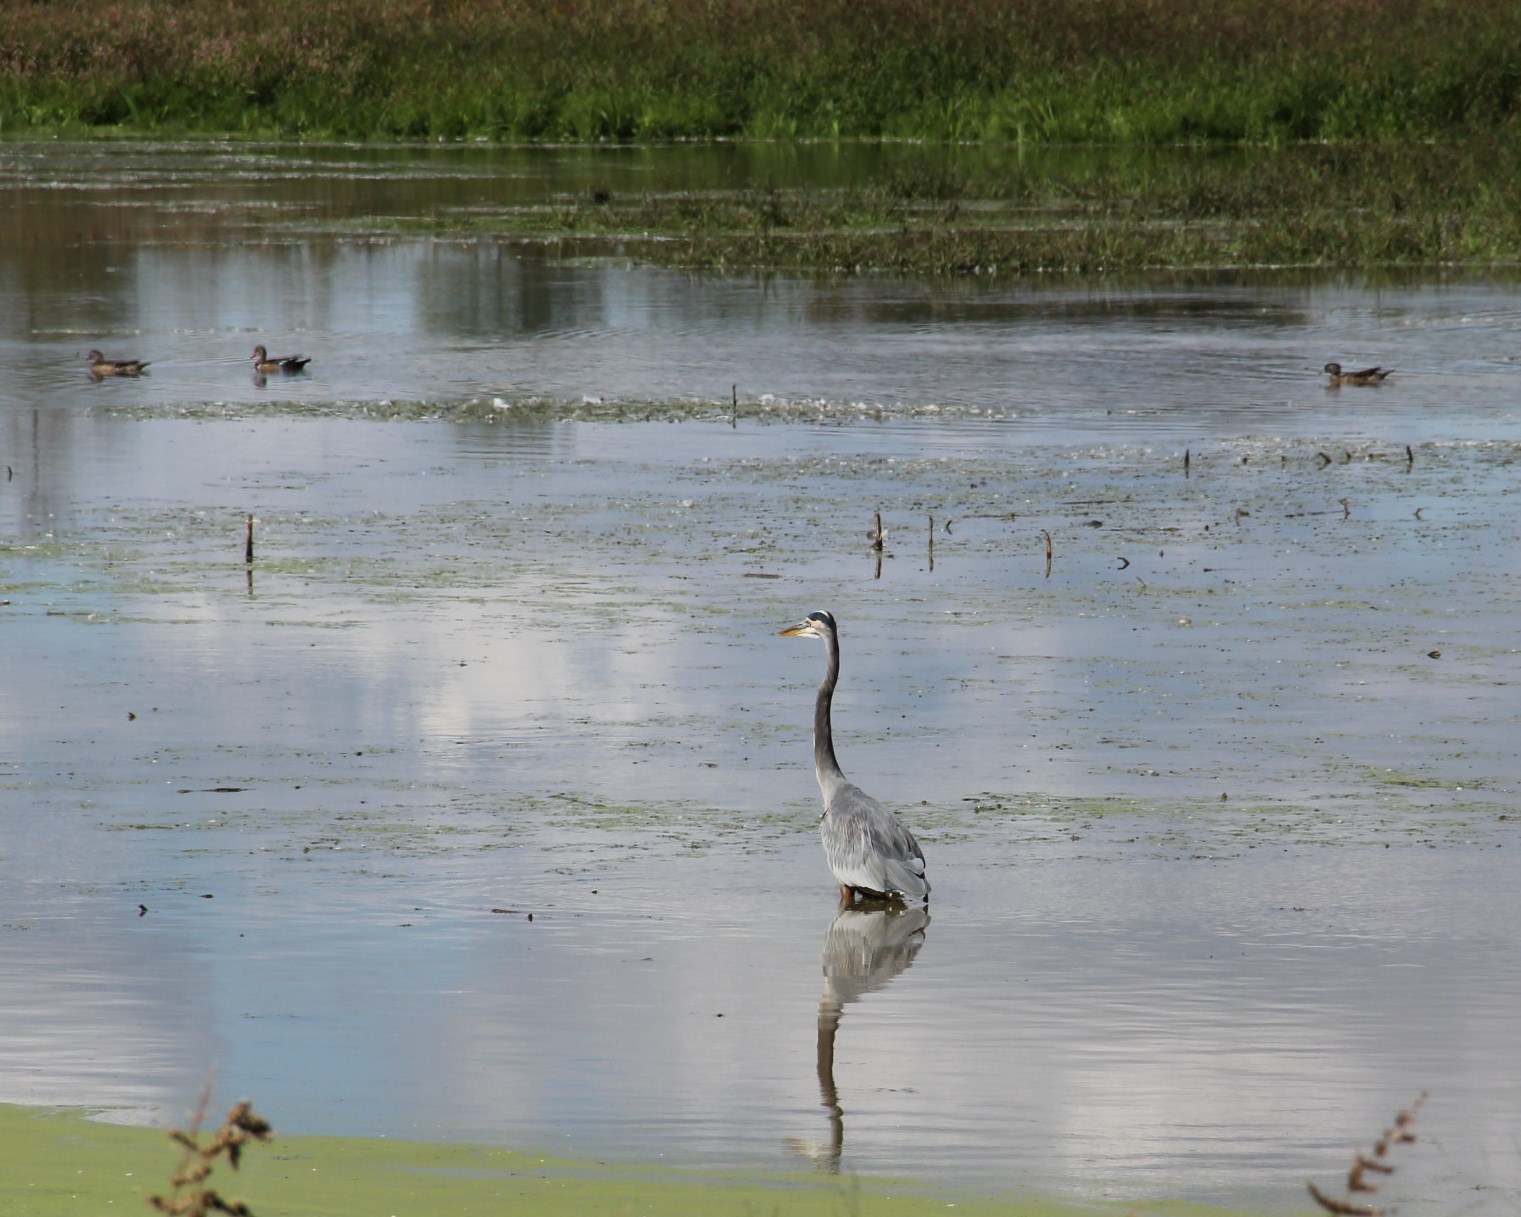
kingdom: Animalia
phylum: Chordata
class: Aves
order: Pelecaniformes
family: Ardeidae
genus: Ardea
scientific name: Ardea herodias
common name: Great blue heron
